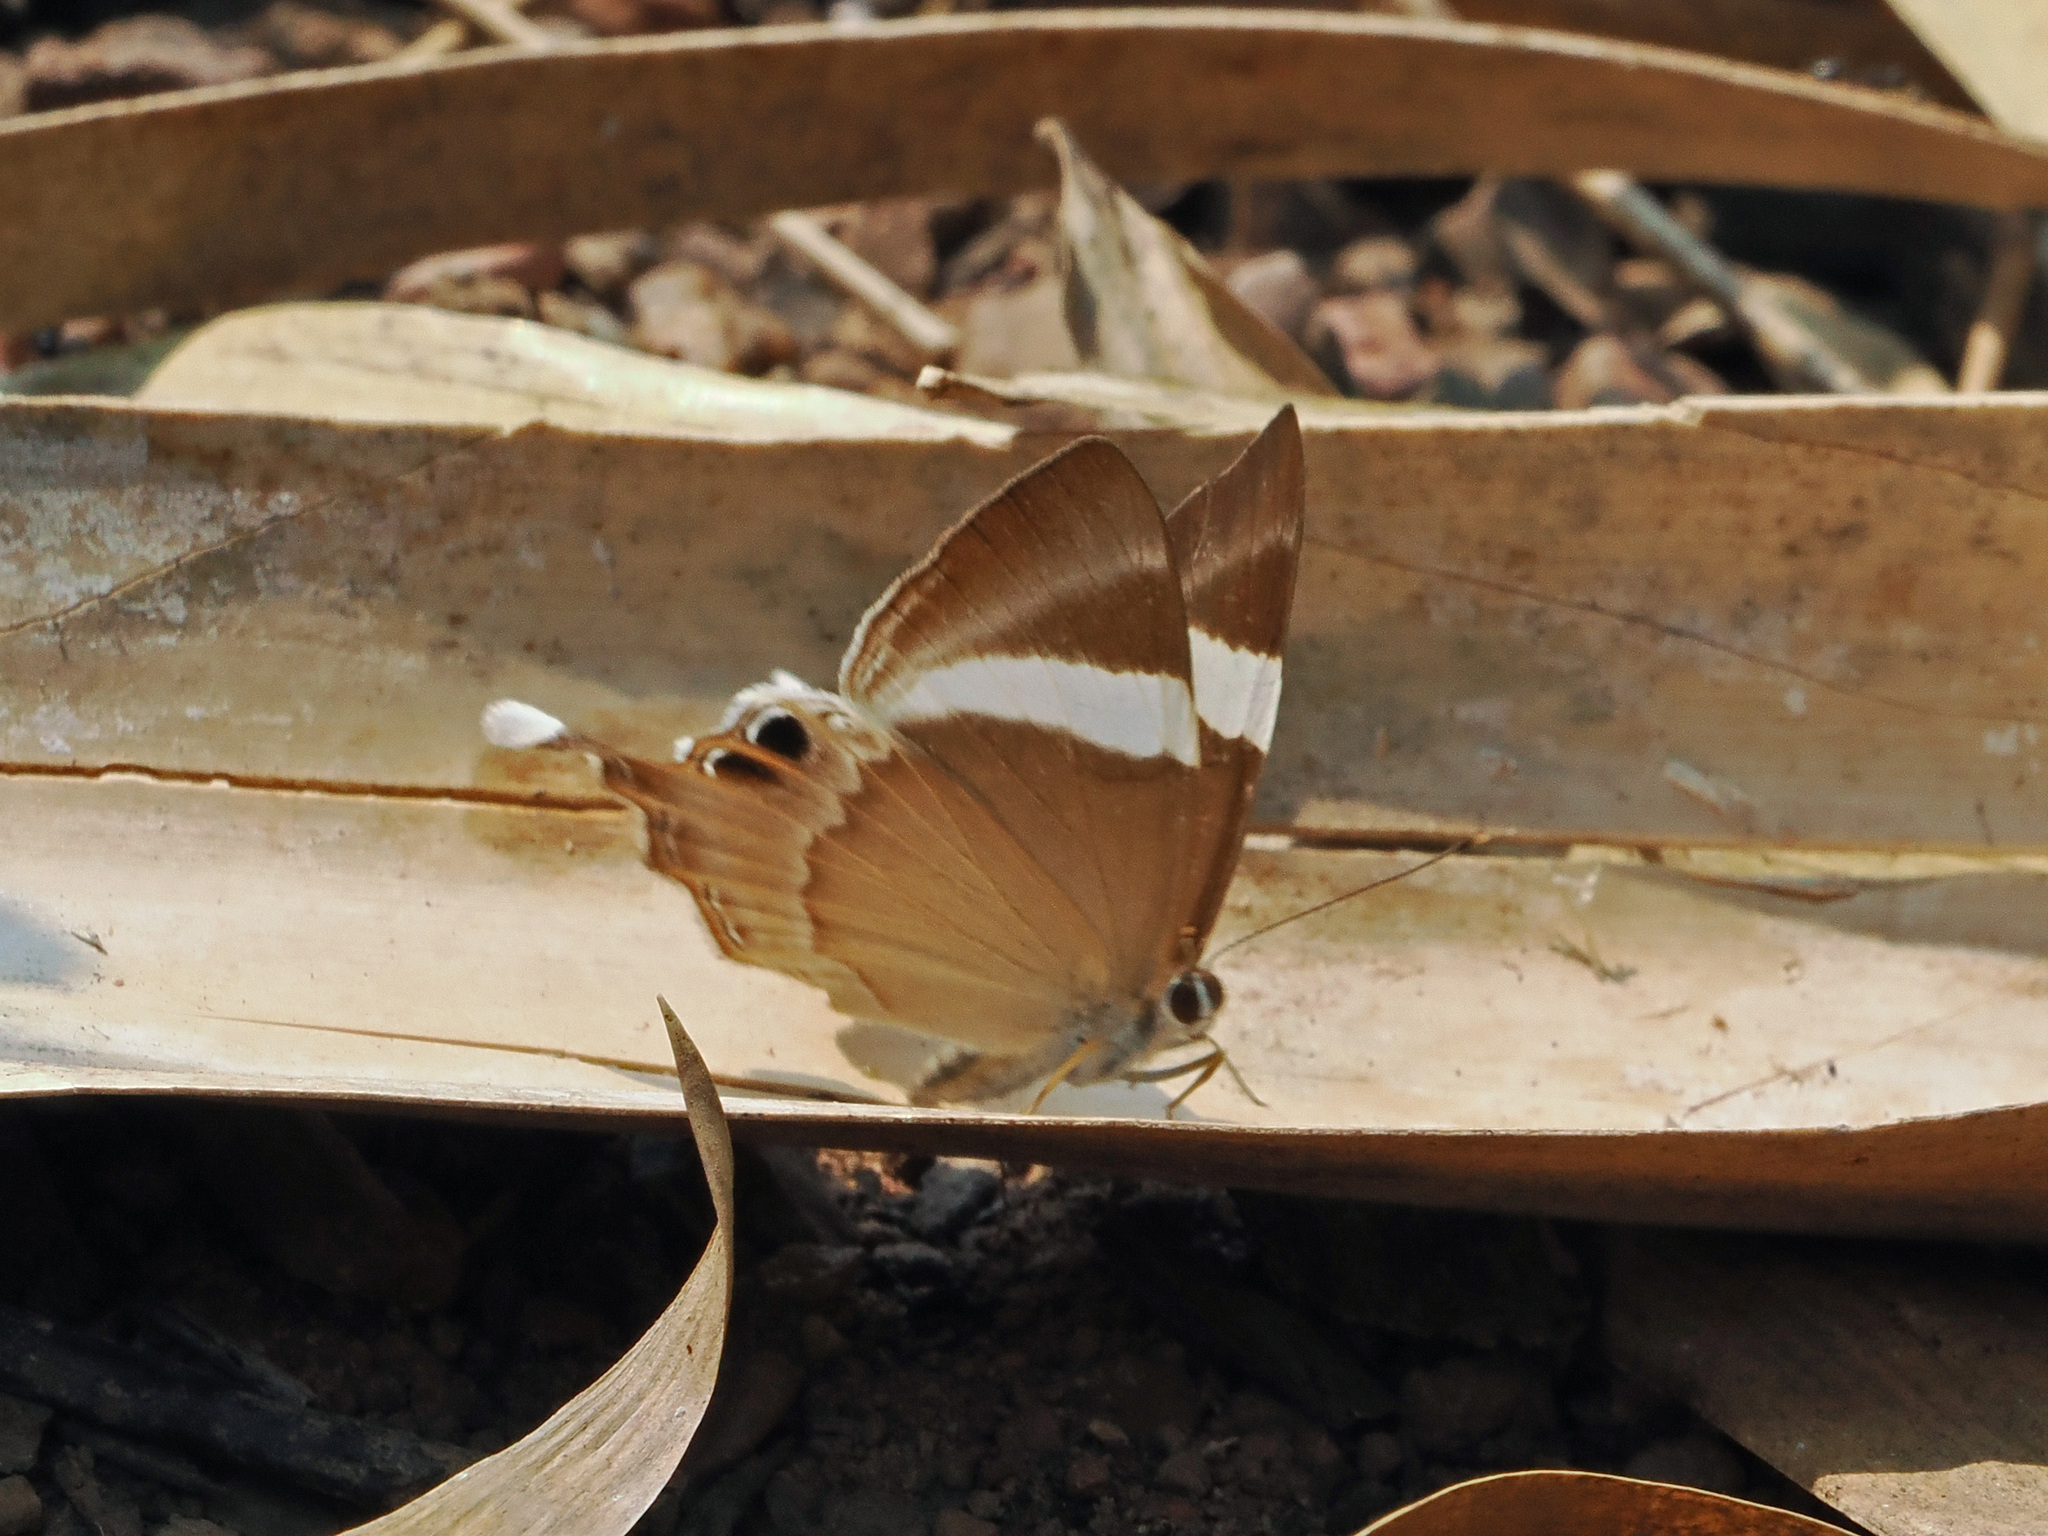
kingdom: Animalia
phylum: Arthropoda
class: Insecta
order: Lepidoptera
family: Lycaenidae
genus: Abisara
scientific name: Abisara neophron
